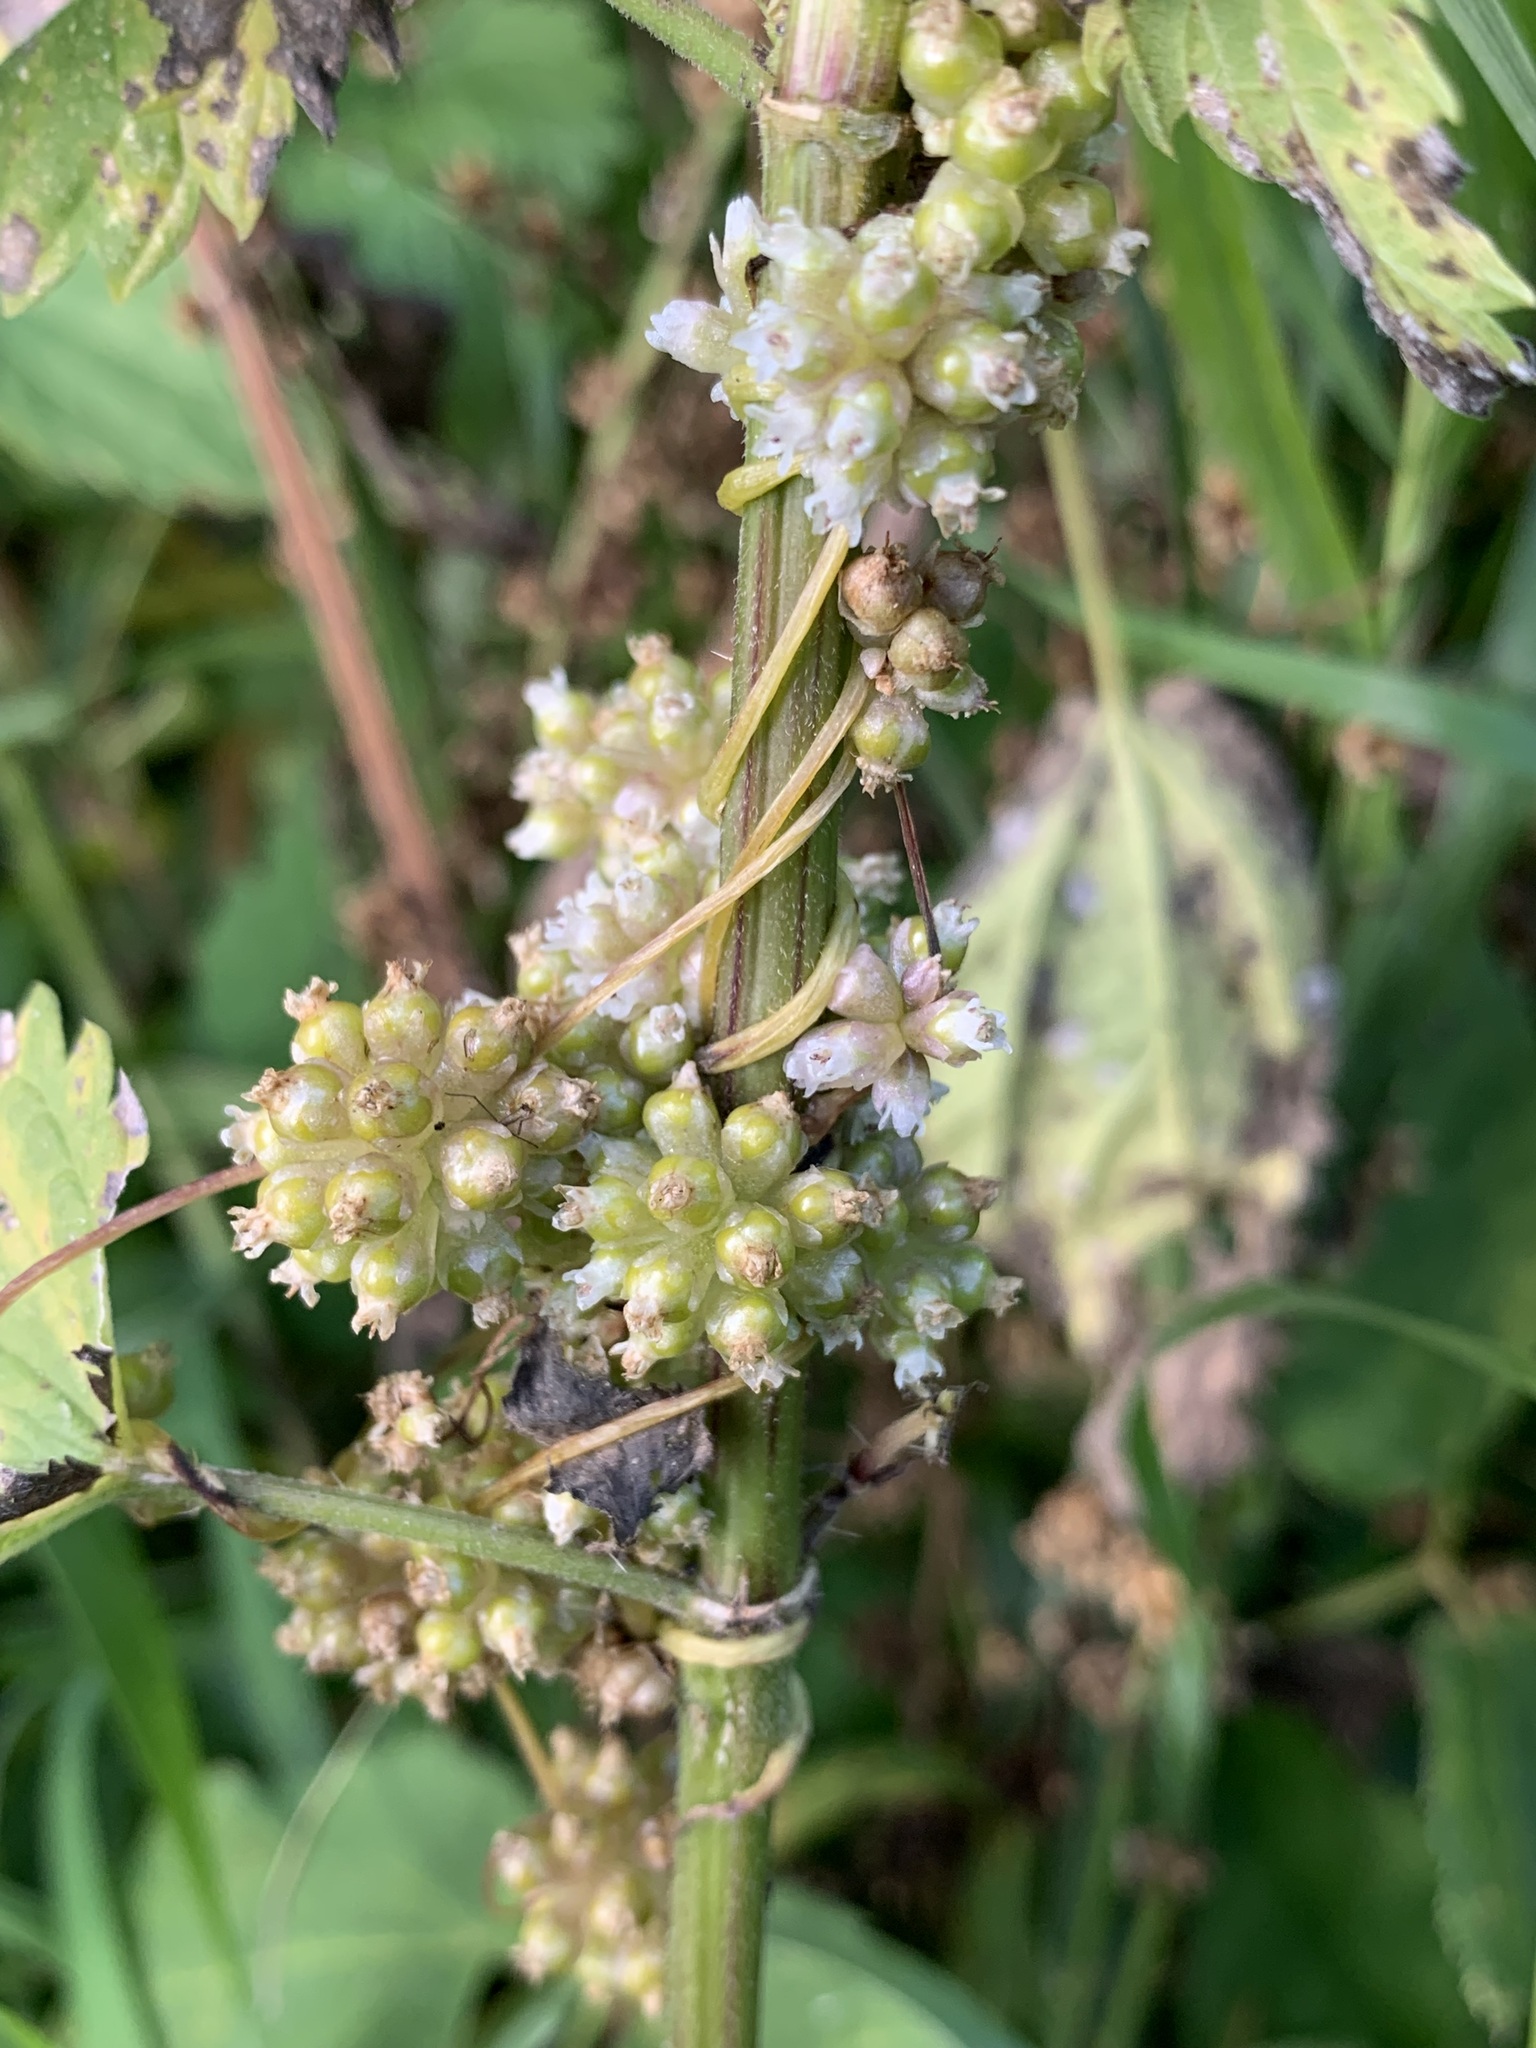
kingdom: Plantae
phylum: Tracheophyta
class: Magnoliopsida
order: Solanales
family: Convolvulaceae
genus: Cuscuta
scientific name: Cuscuta europaea
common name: Greater dodder
